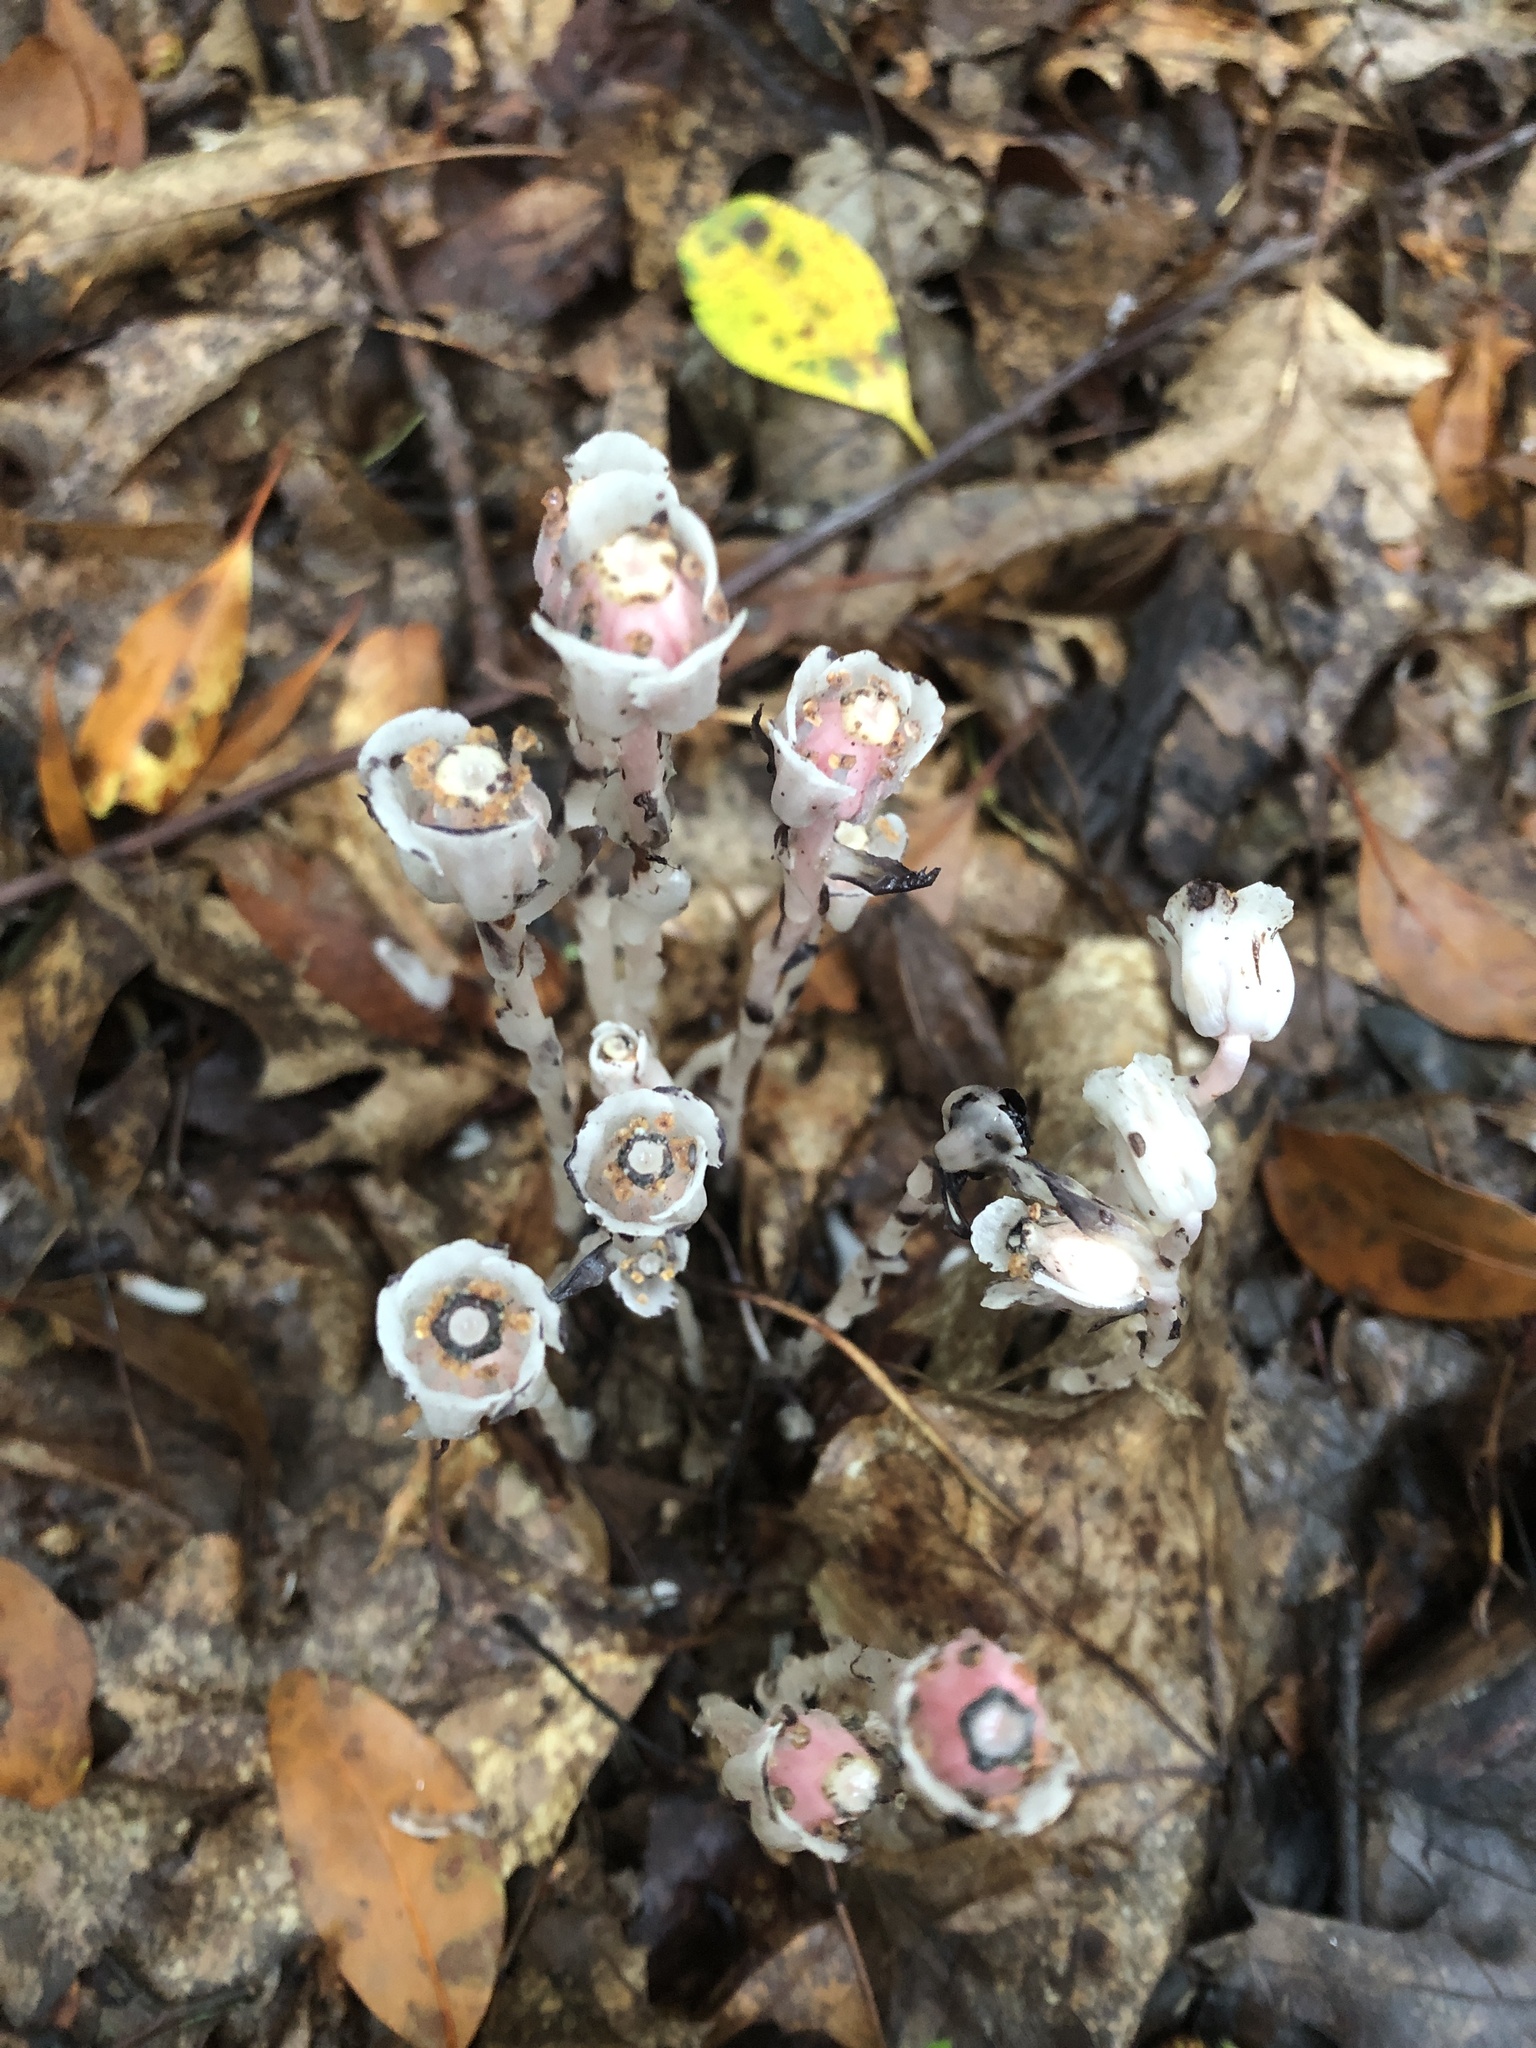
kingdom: Plantae
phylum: Tracheophyta
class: Magnoliopsida
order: Ericales
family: Ericaceae
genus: Monotropa
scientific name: Monotropa uniflora
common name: Convulsion root
